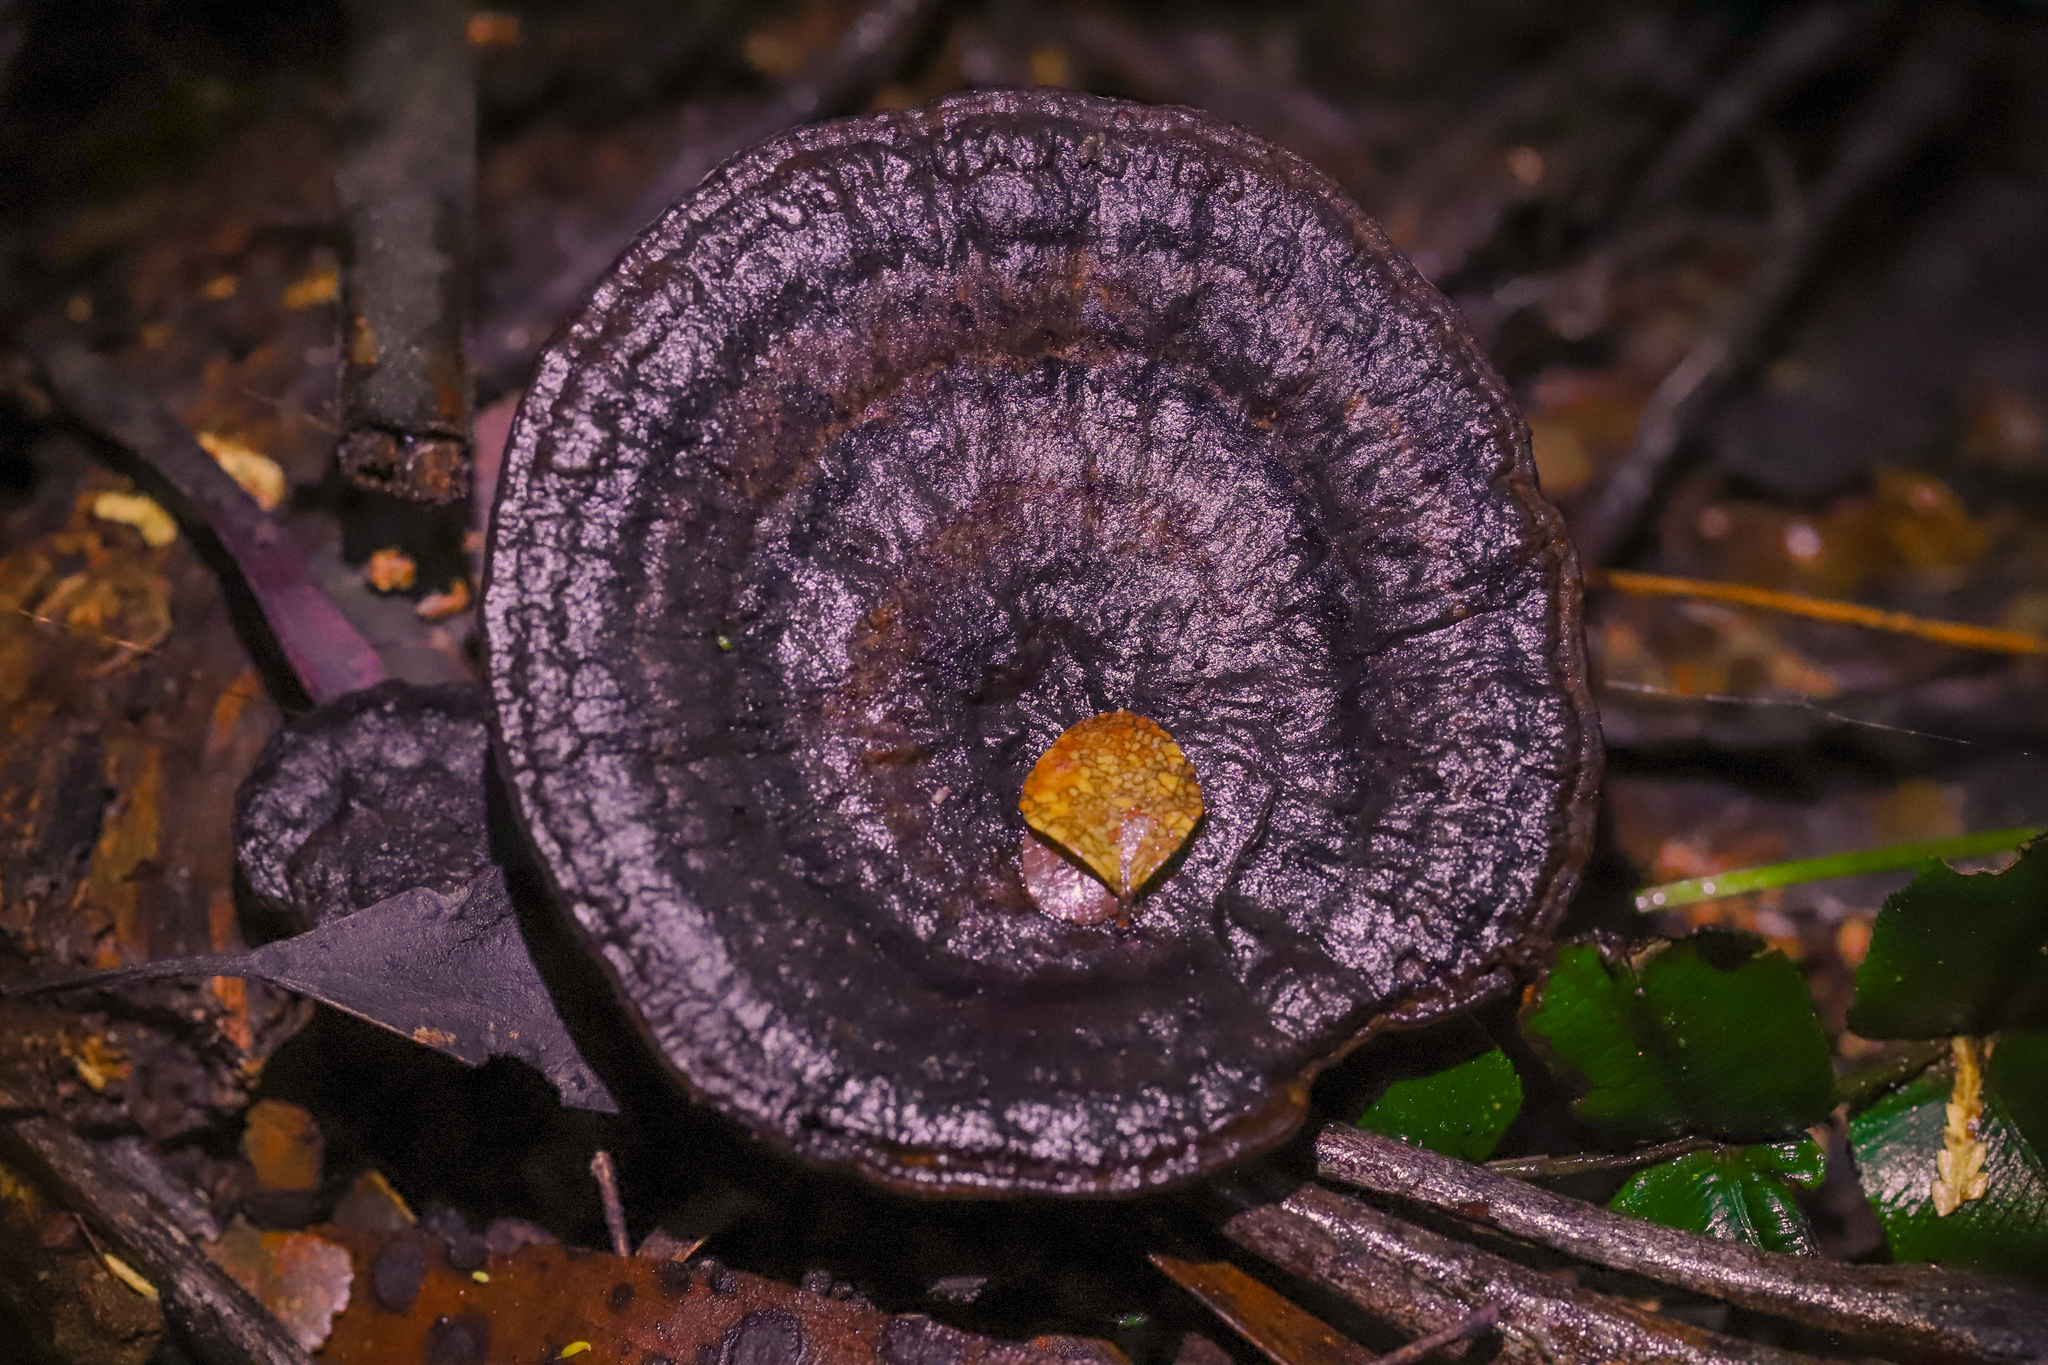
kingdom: Fungi
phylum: Basidiomycota
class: Agaricomycetes
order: Polyporales
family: Ganodermataceae
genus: Sanguinoderma
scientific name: Sanguinoderma rude
